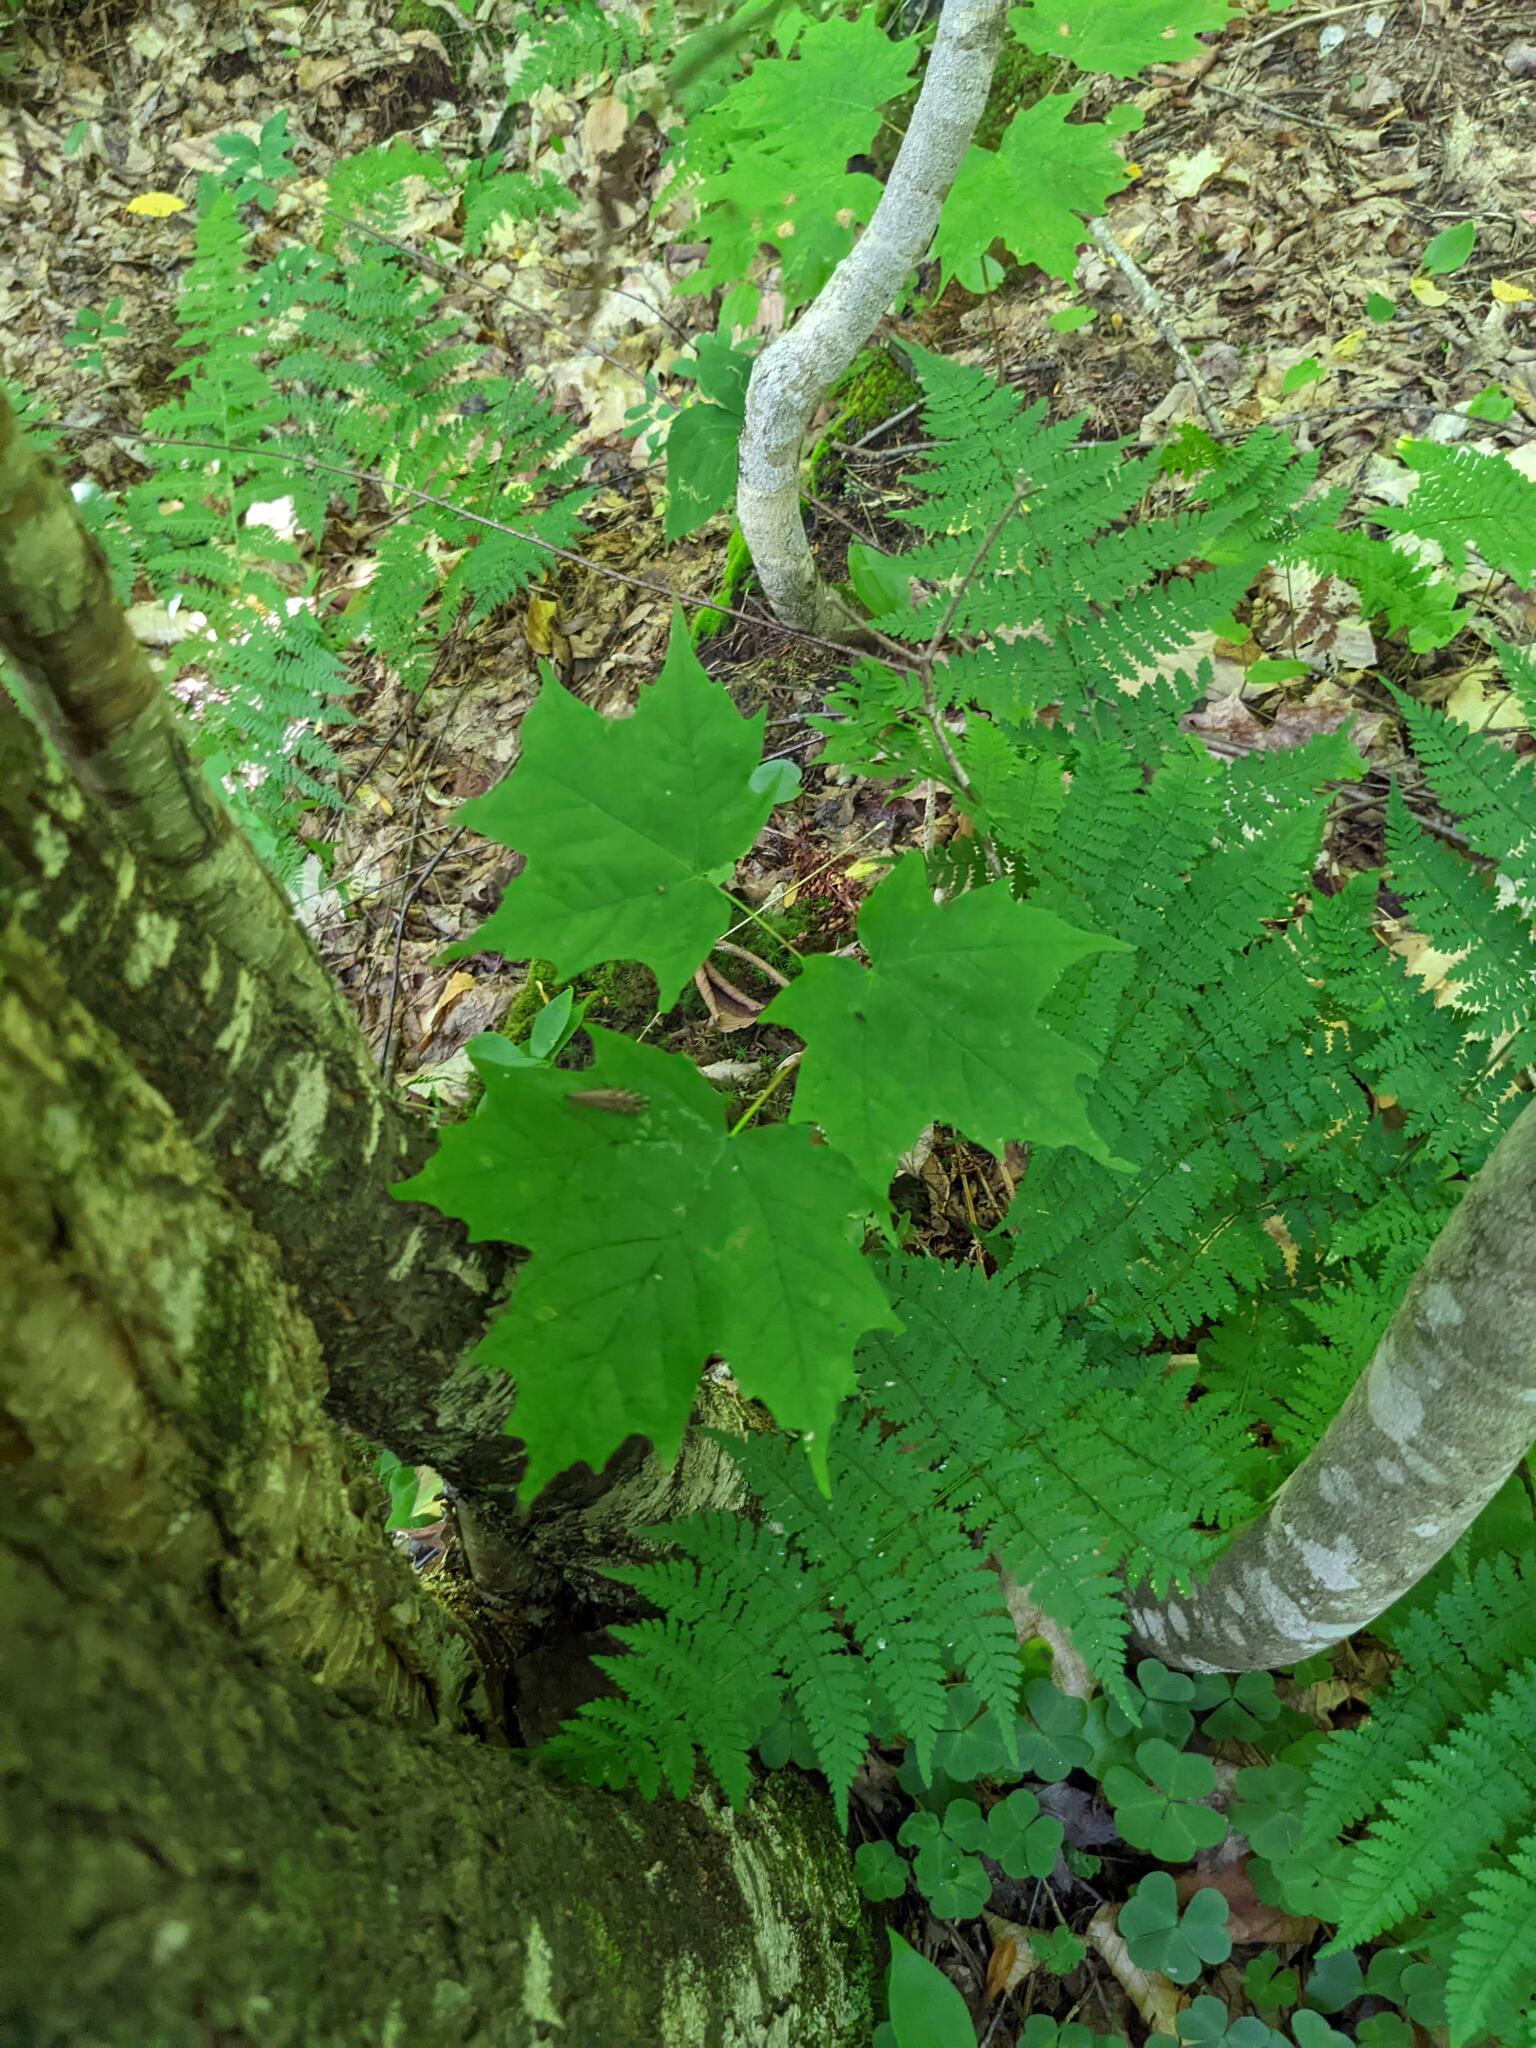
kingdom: Plantae
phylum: Tracheophyta
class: Magnoliopsida
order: Sapindales
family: Sapindaceae
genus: Acer
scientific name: Acer saccharum
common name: Sugar maple
